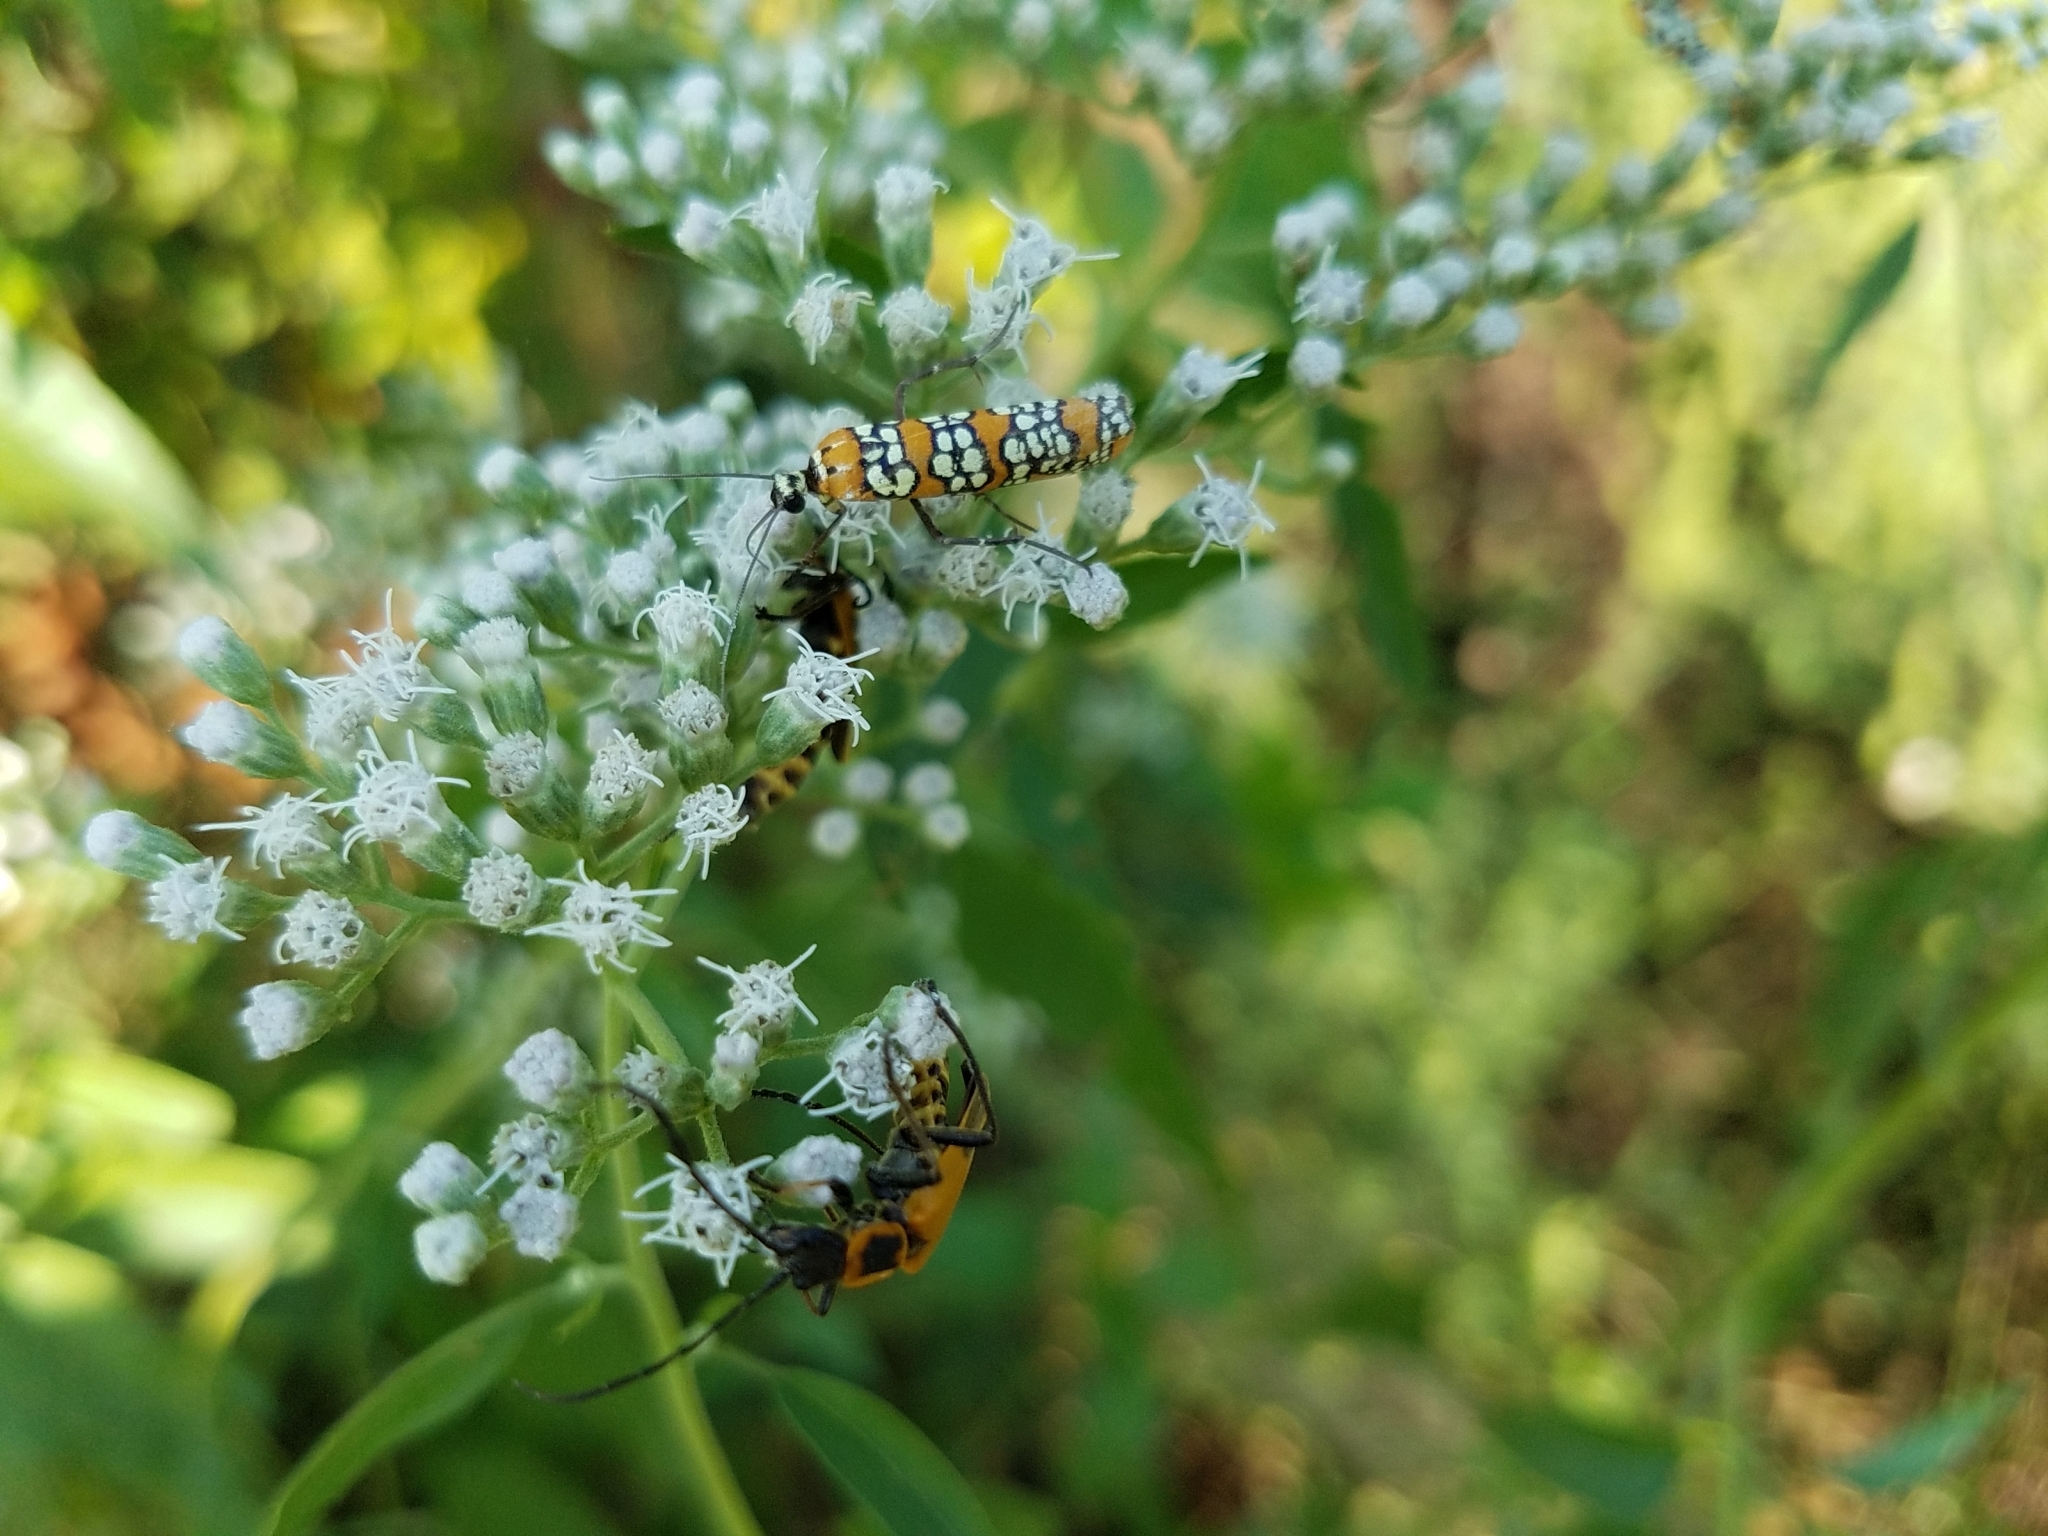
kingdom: Animalia
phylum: Arthropoda
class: Insecta
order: Lepidoptera
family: Attevidae
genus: Atteva
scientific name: Atteva punctella
